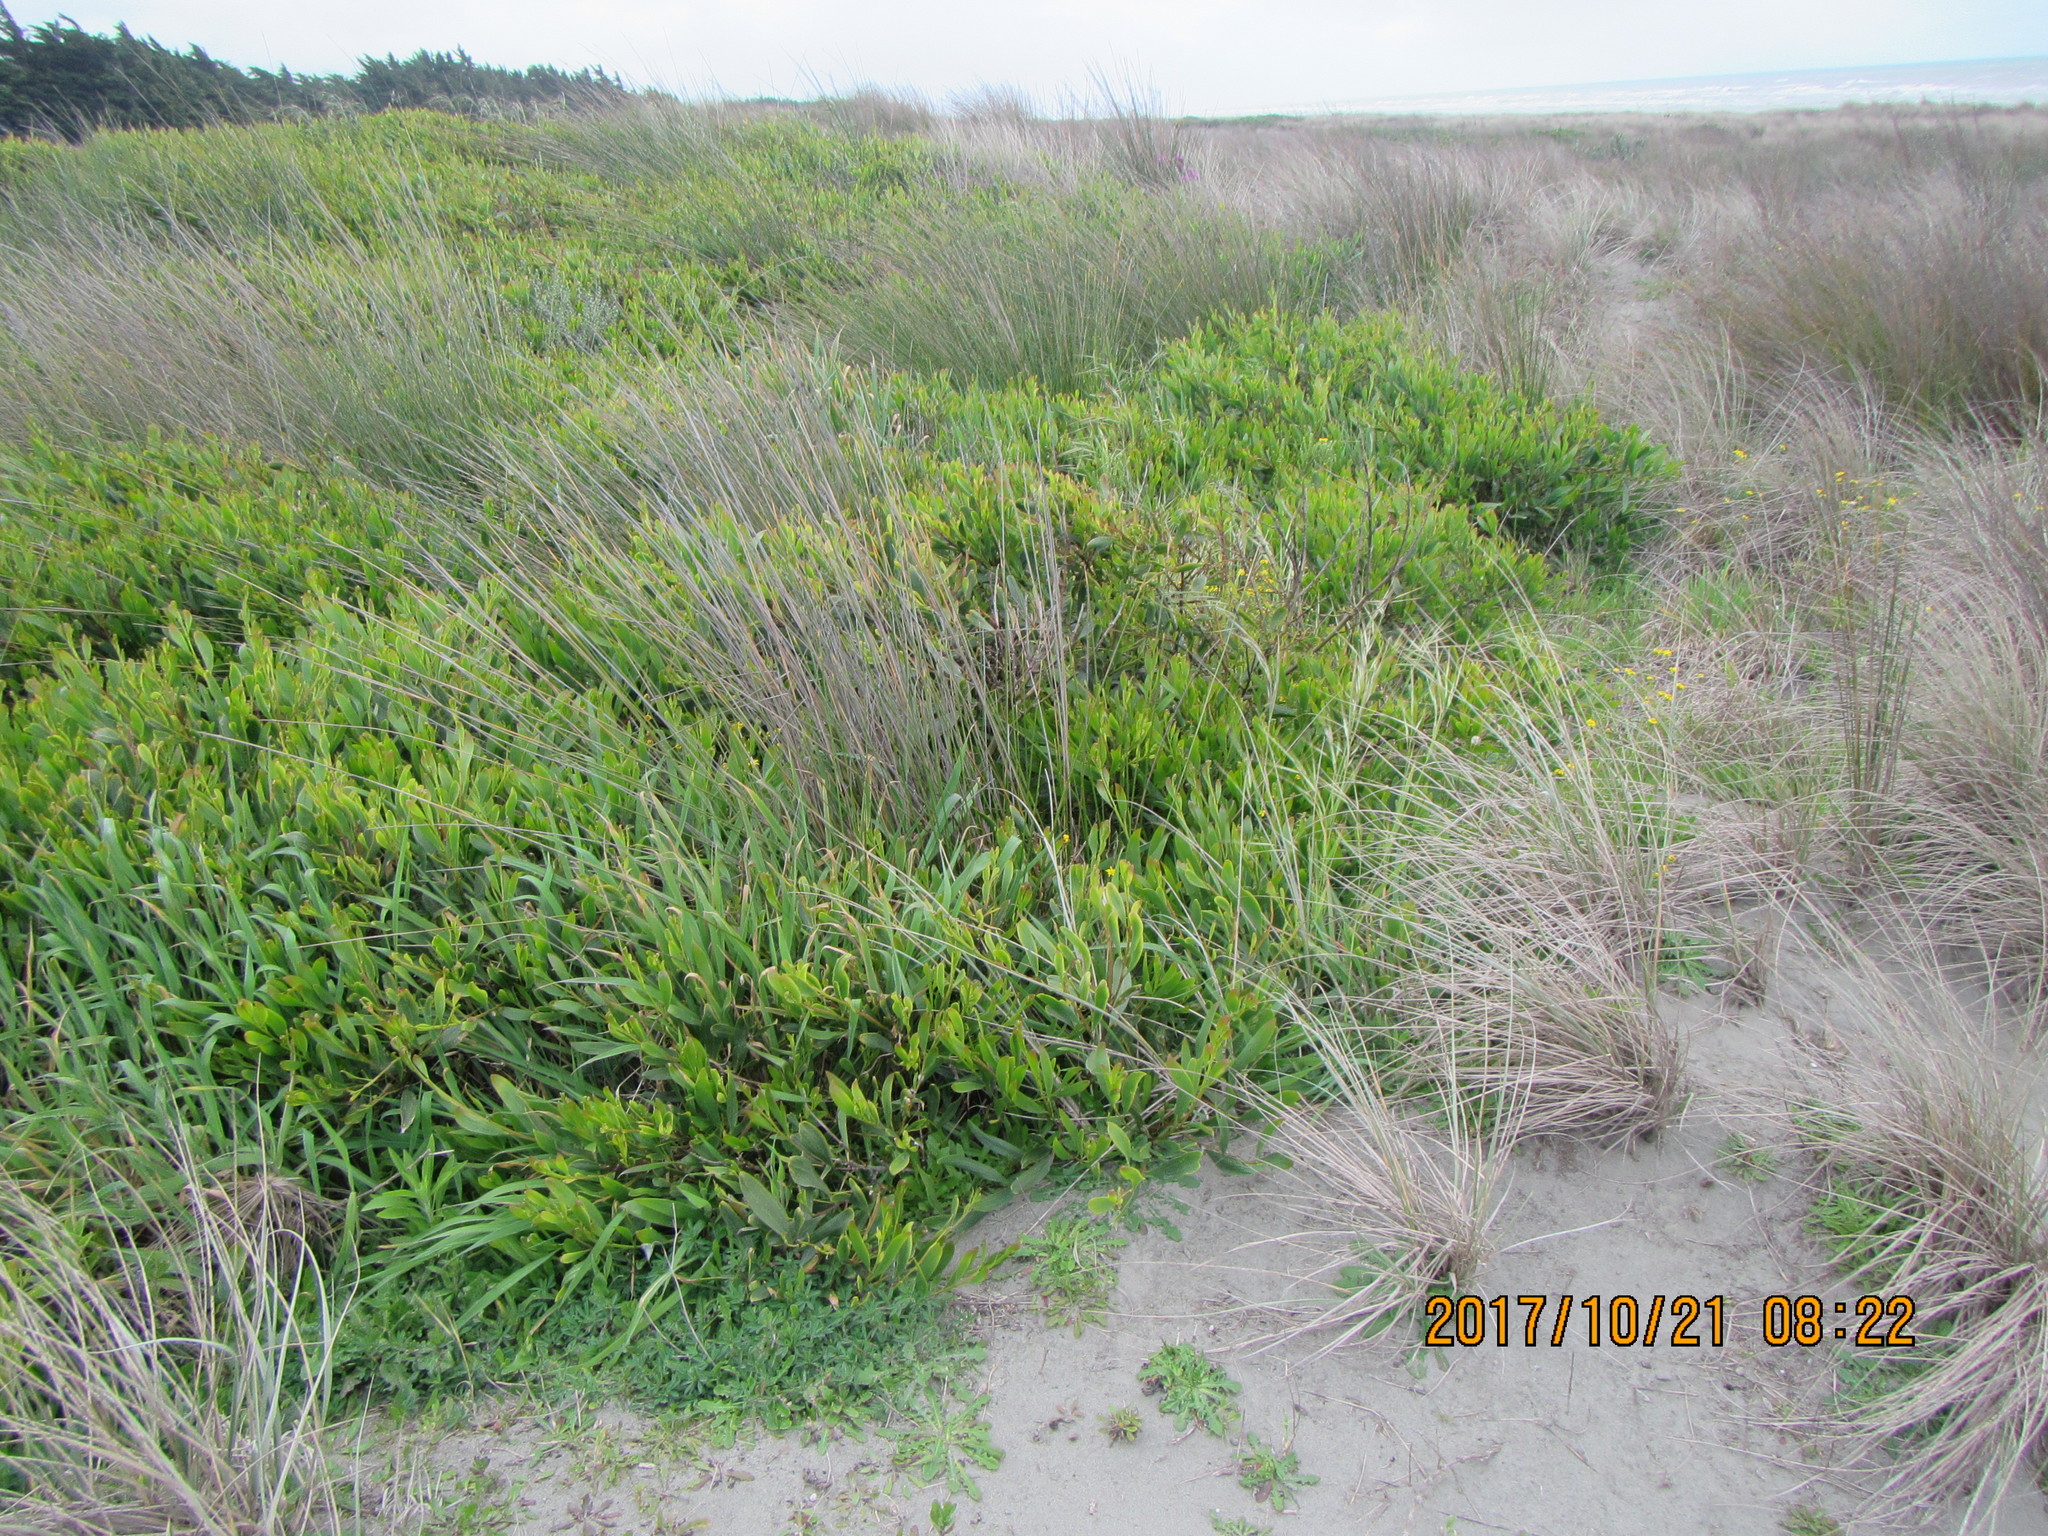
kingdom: Plantae
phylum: Tracheophyta
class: Magnoliopsida
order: Fabales
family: Fabaceae
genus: Acacia
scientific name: Acacia longifolia
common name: Sydney golden wattle
